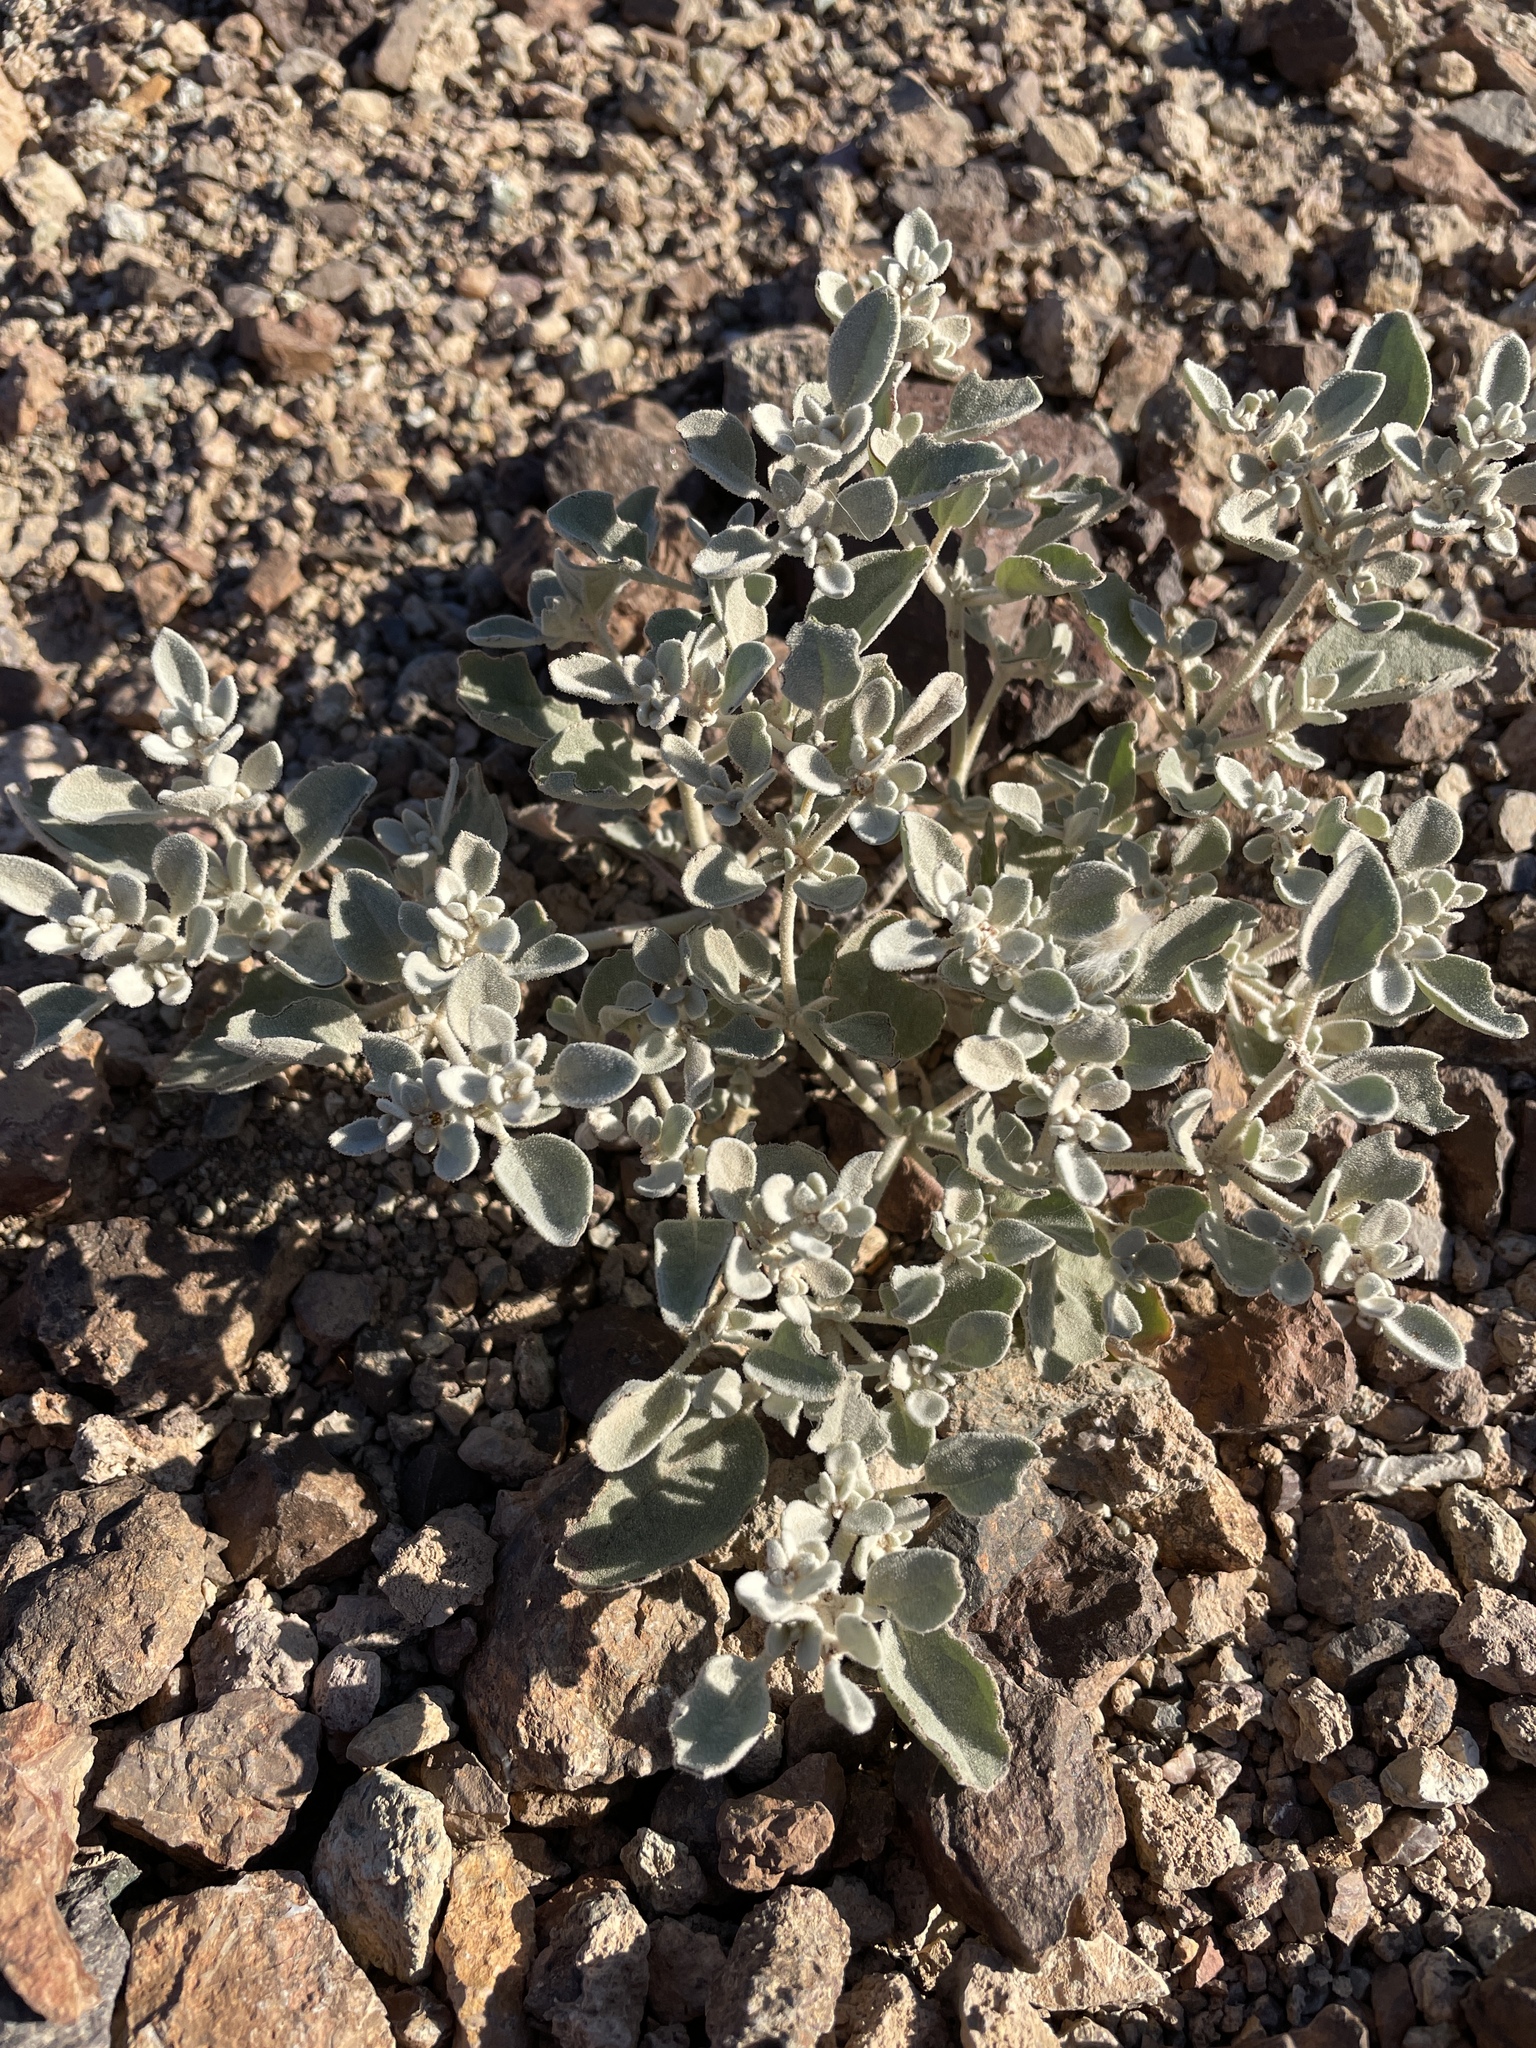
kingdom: Plantae
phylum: Tracheophyta
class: Magnoliopsida
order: Caryophyllales
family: Amaranthaceae
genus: Tidestromia
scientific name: Tidestromia suffruticosa
